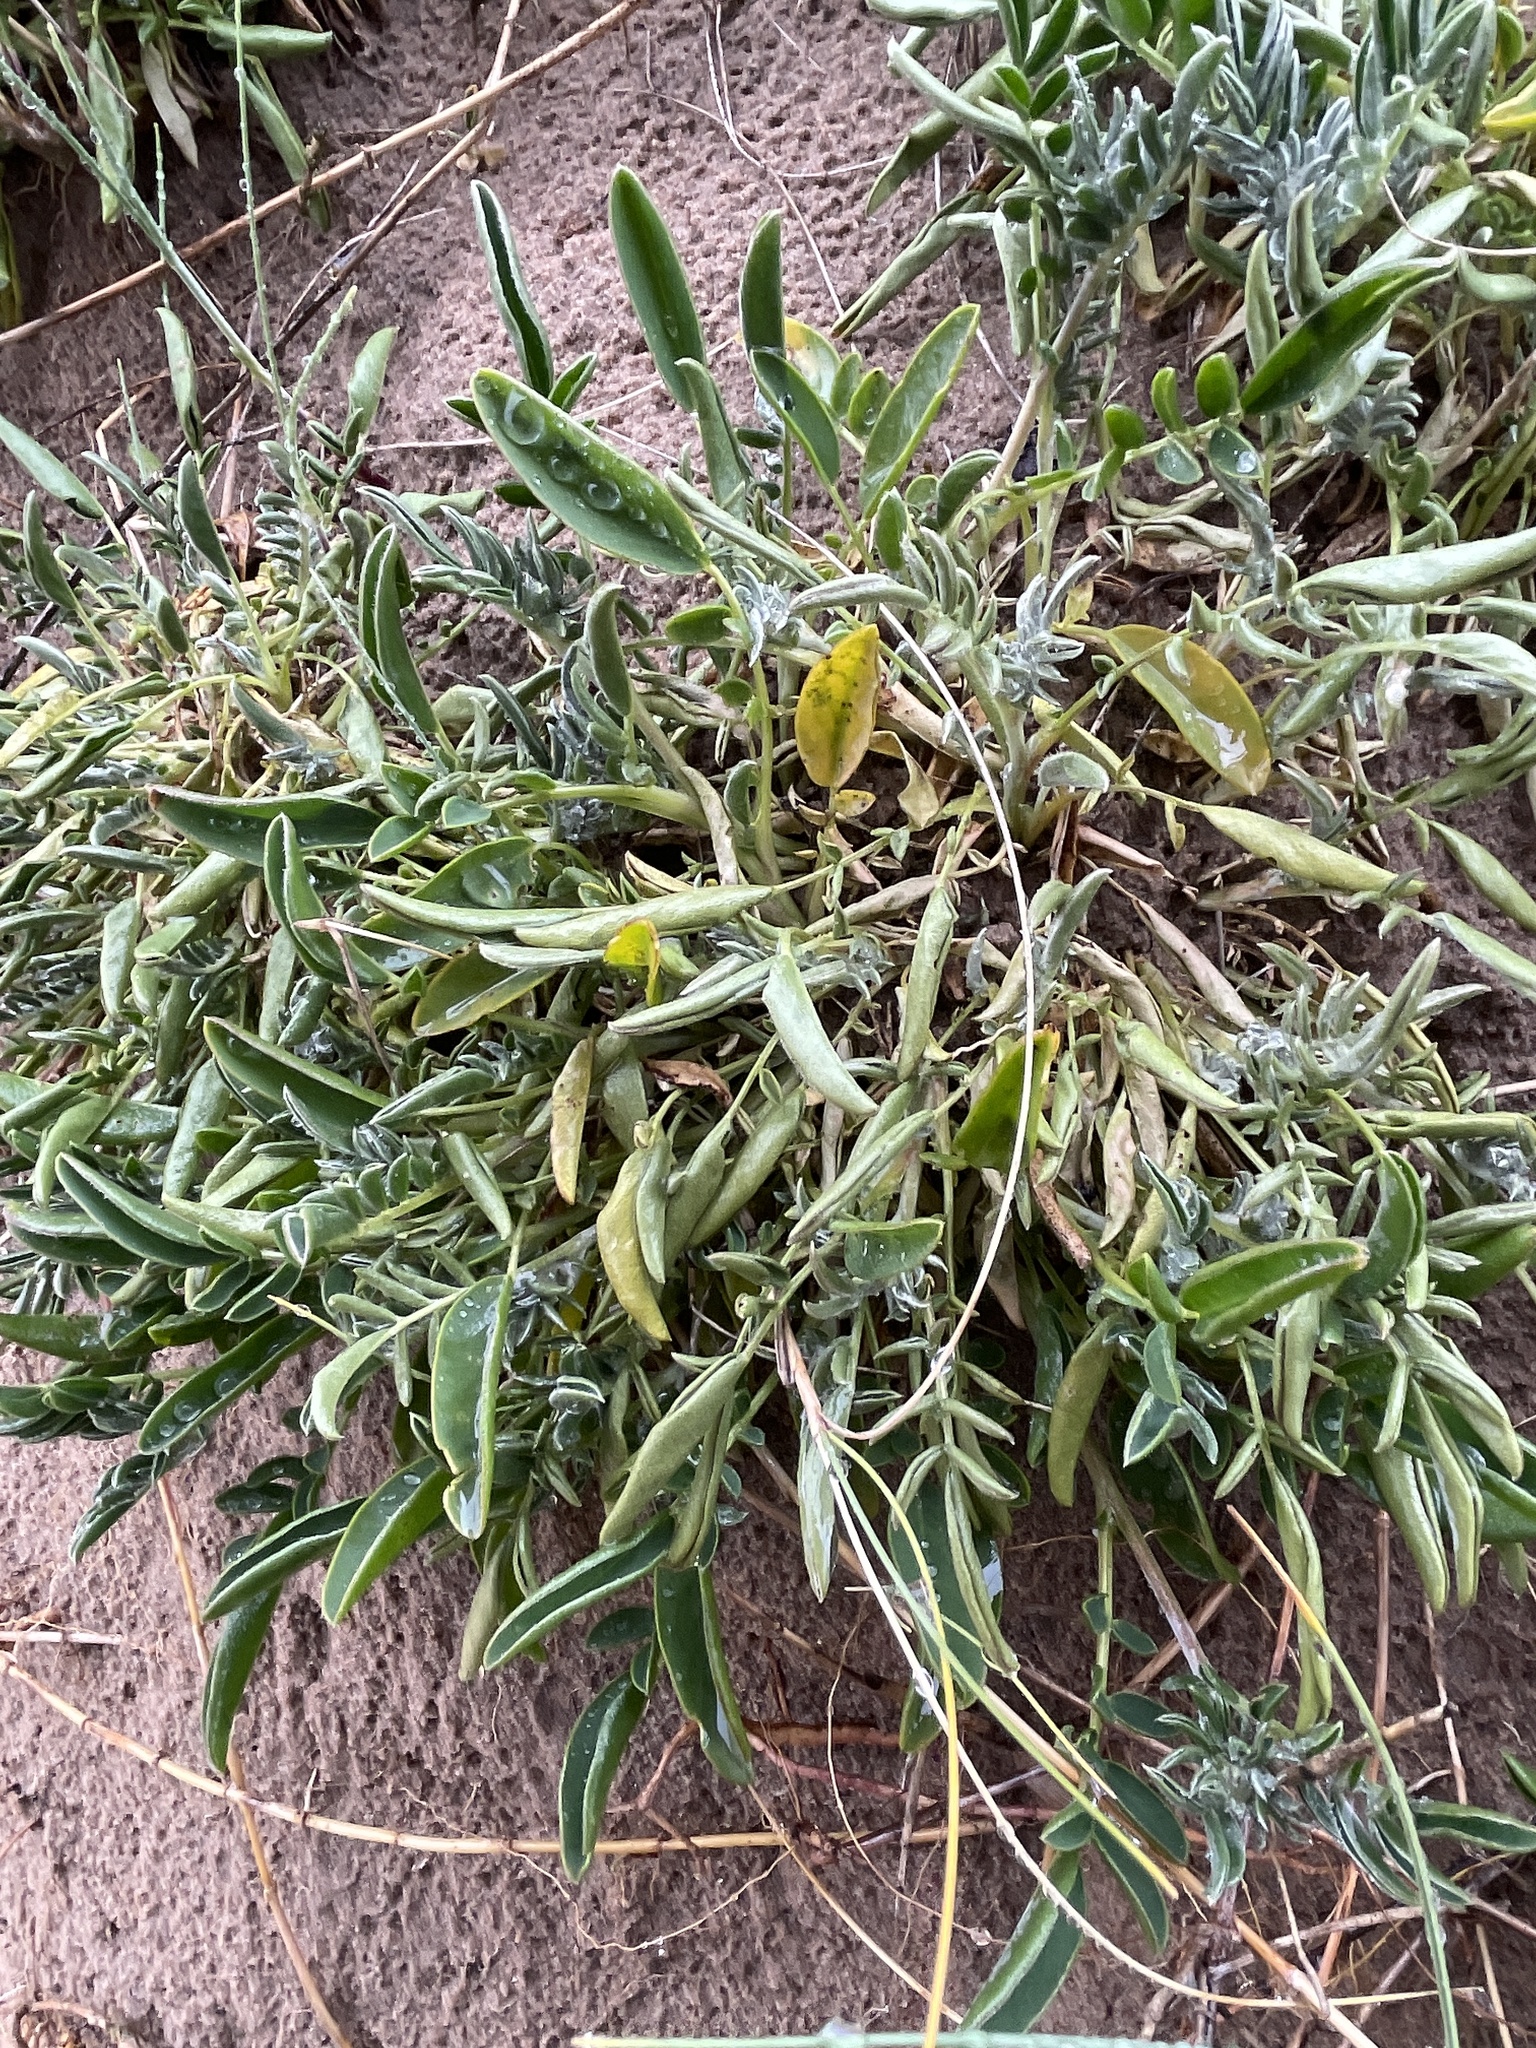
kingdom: Plantae
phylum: Tracheophyta
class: Magnoliopsida
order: Fabales
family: Fabaceae
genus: Anthyllis
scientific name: Anthyllis vulneraria
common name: Kidney vetch
